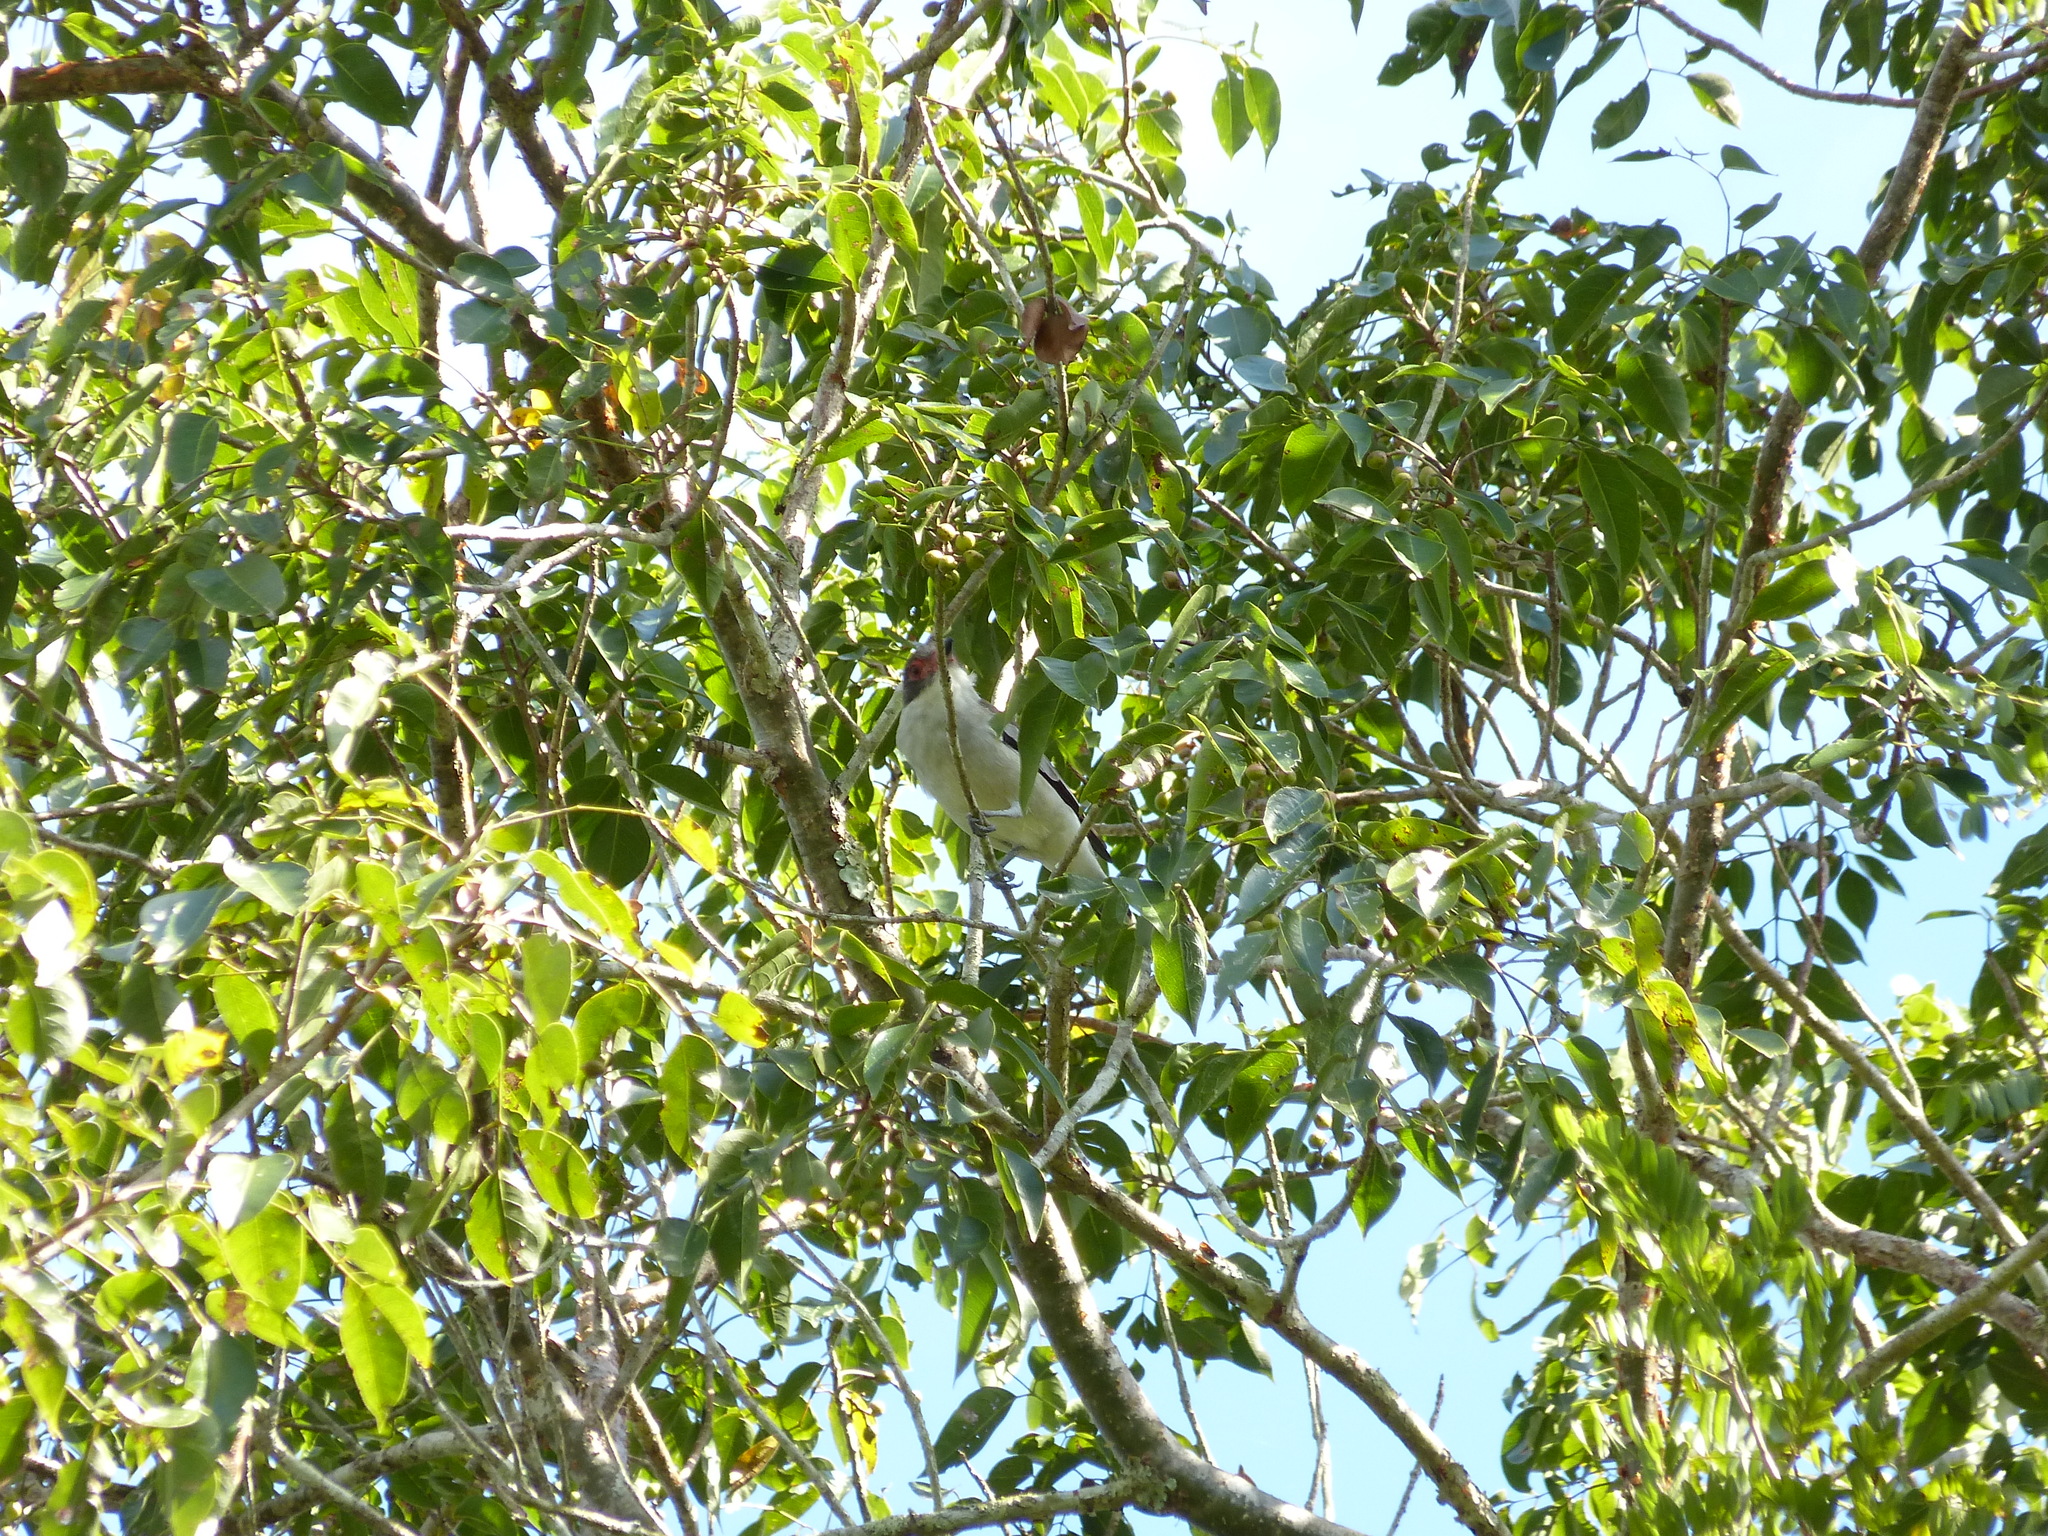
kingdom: Animalia
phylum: Chordata
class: Aves
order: Passeriformes
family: Cotingidae
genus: Tityra
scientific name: Tityra semifasciata
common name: Masked tityra
